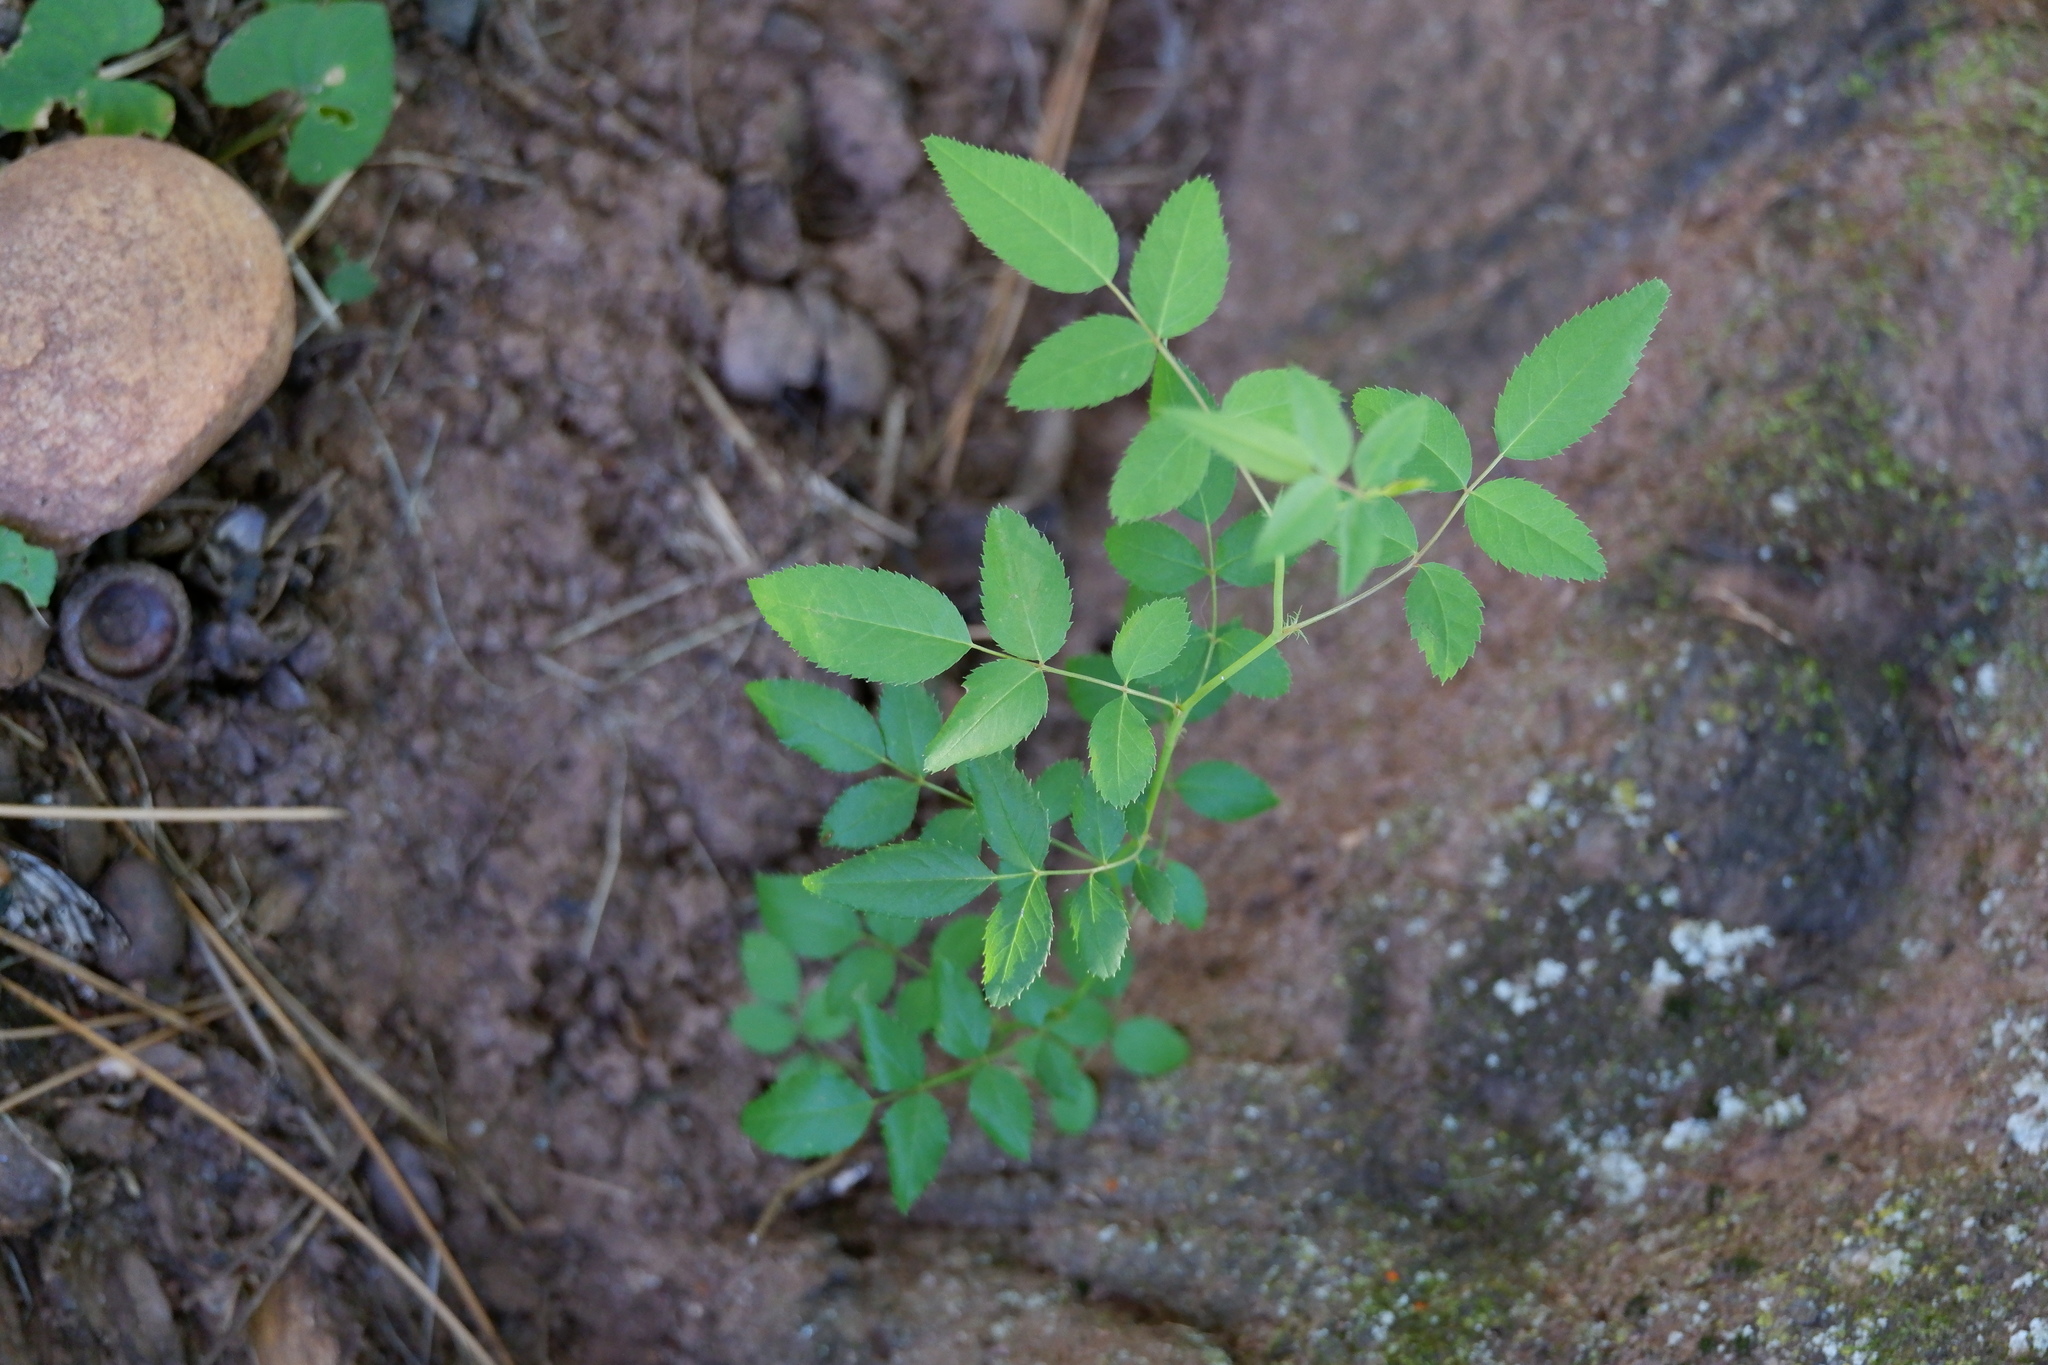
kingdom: Plantae
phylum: Tracheophyta
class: Magnoliopsida
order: Rosales
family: Rosaceae
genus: Rosa
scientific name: Rosa multiflora
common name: Multiflora rose
